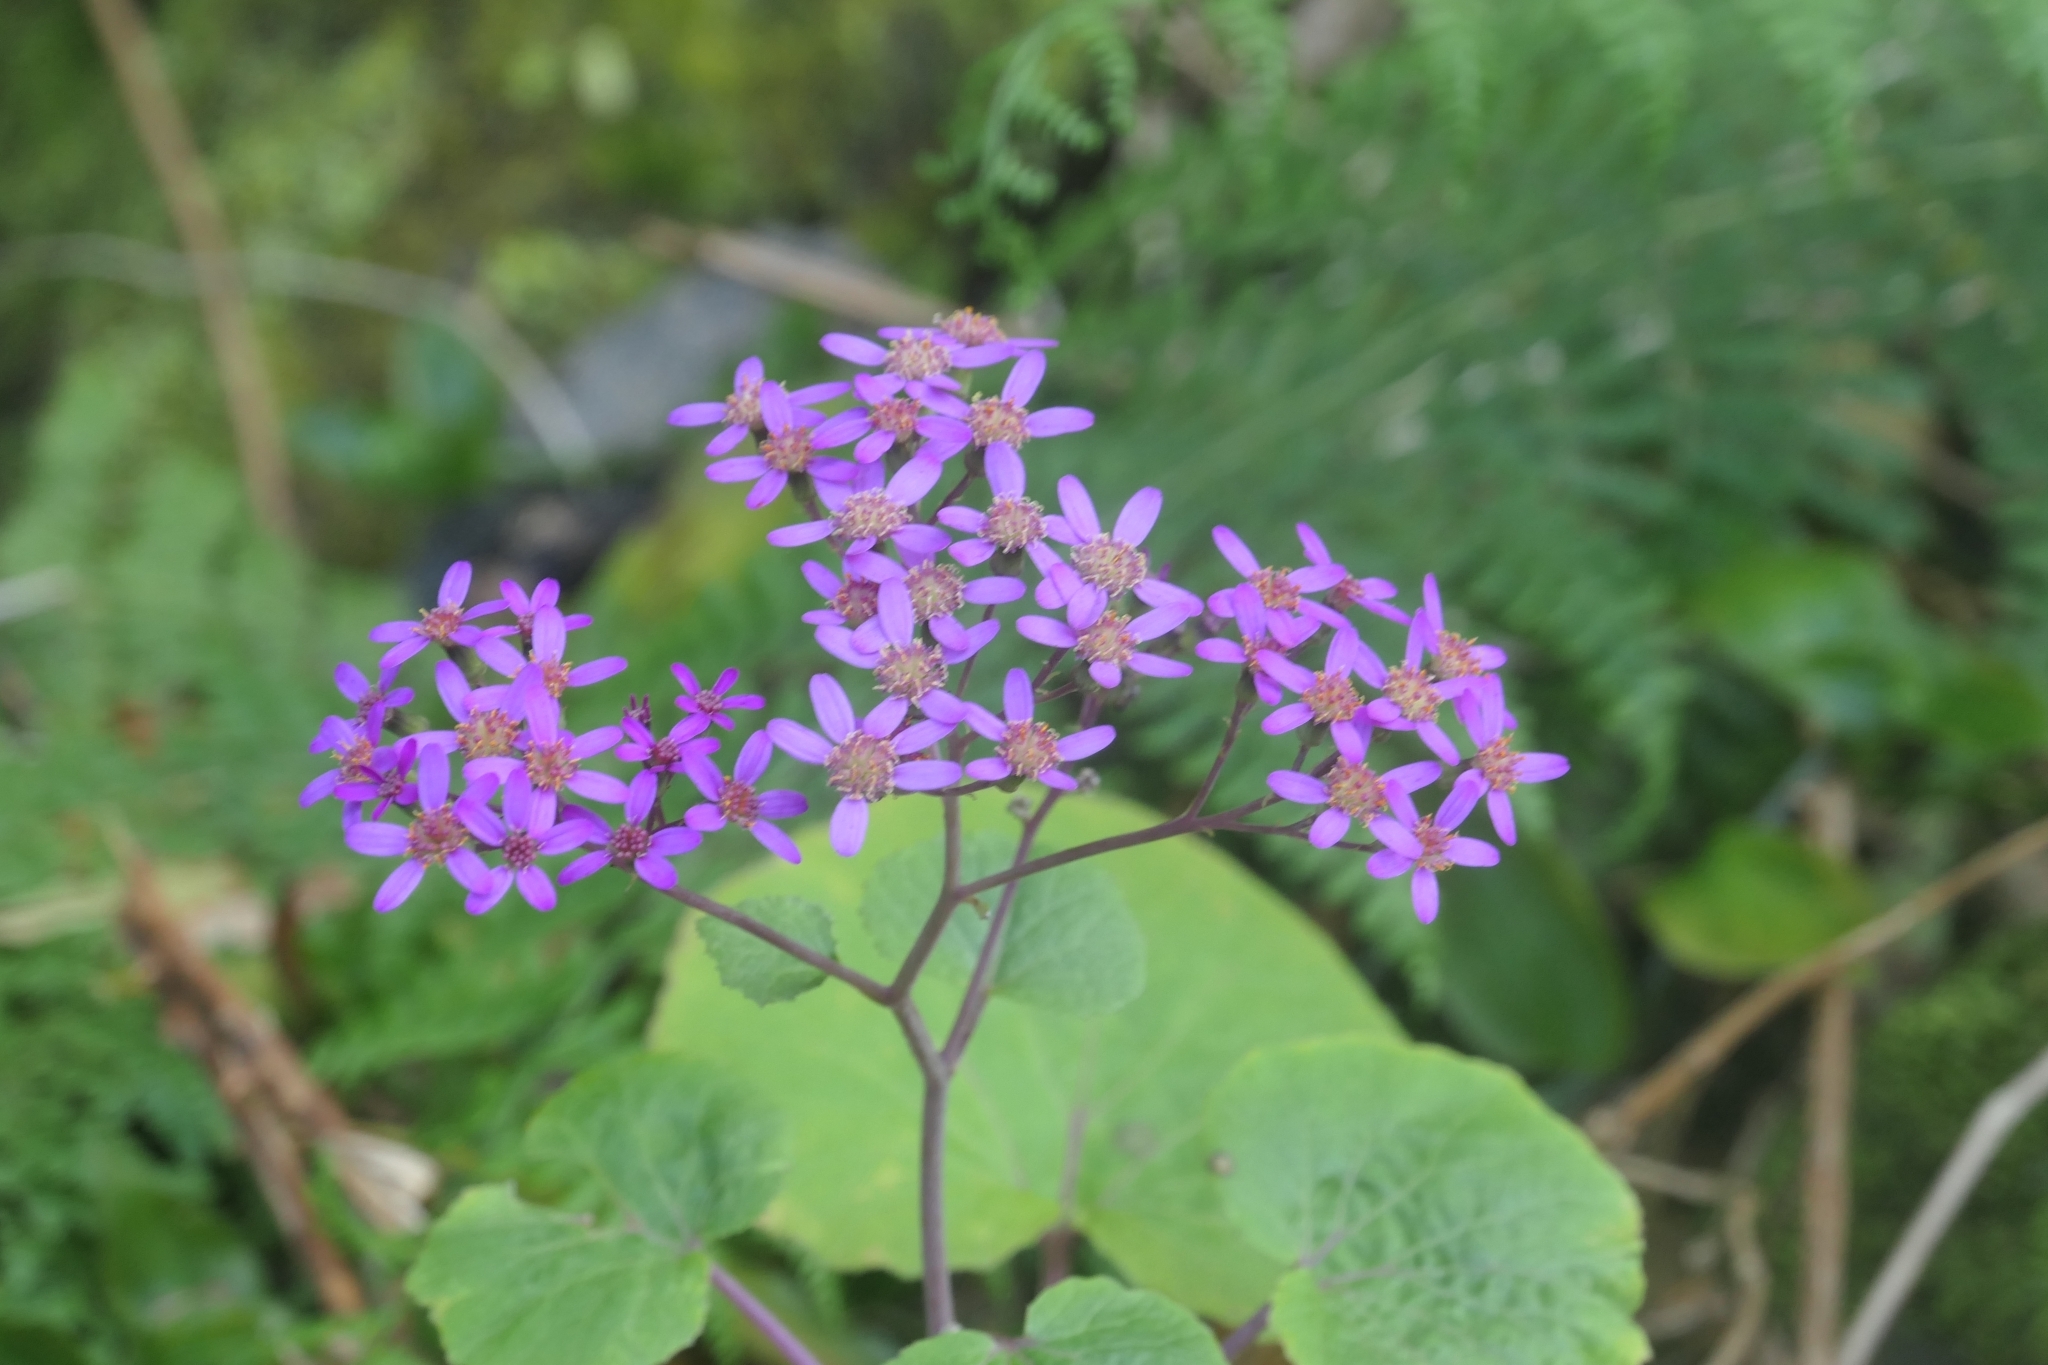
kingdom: Plantae
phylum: Tracheophyta
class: Magnoliopsida
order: Asterales
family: Asteraceae
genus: Pericallis
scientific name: Pericallis malvifolia
